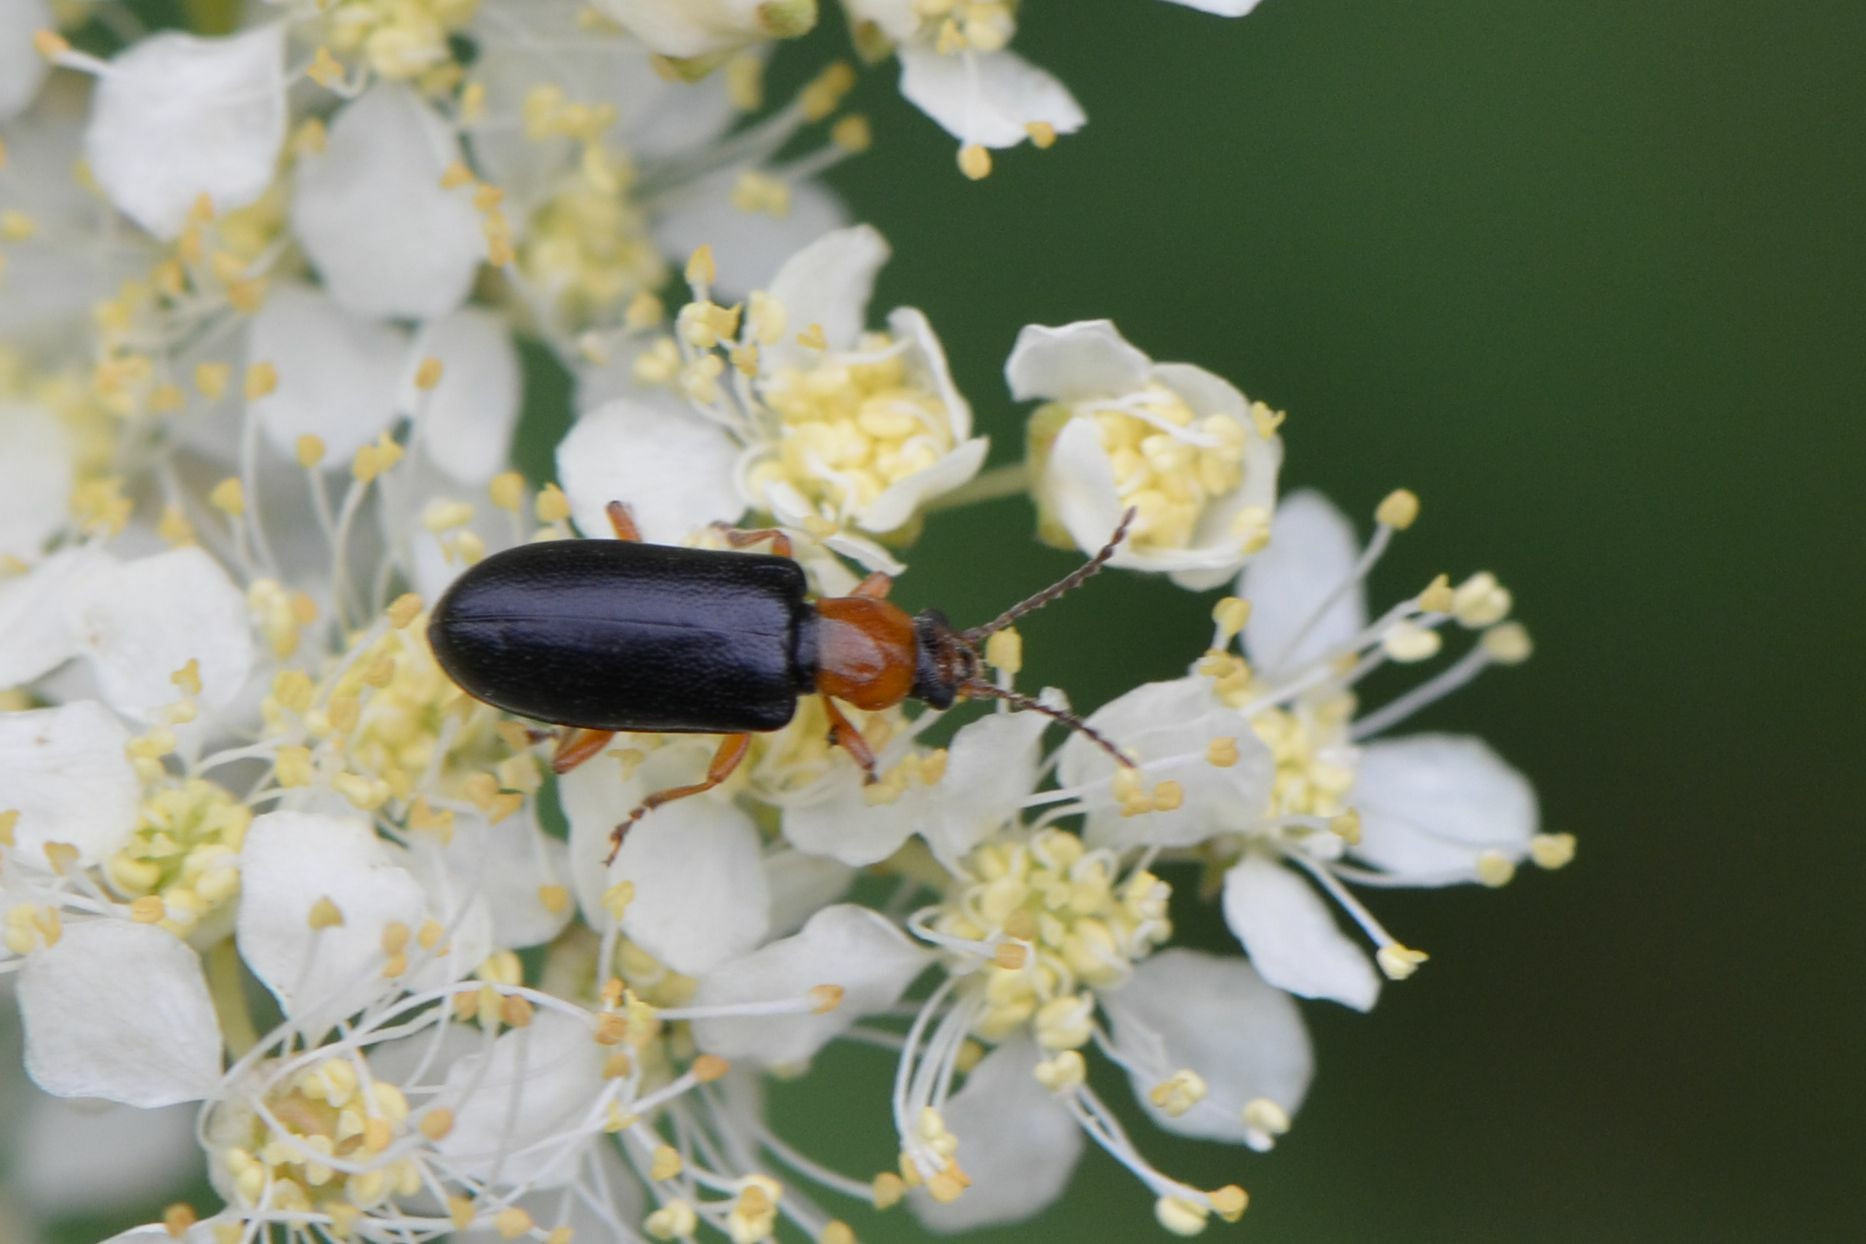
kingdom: Animalia
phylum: Arthropoda
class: Insecta
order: Coleoptera
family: Orsodacnidae
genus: Orsodacne
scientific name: Orsodacne cerasi
